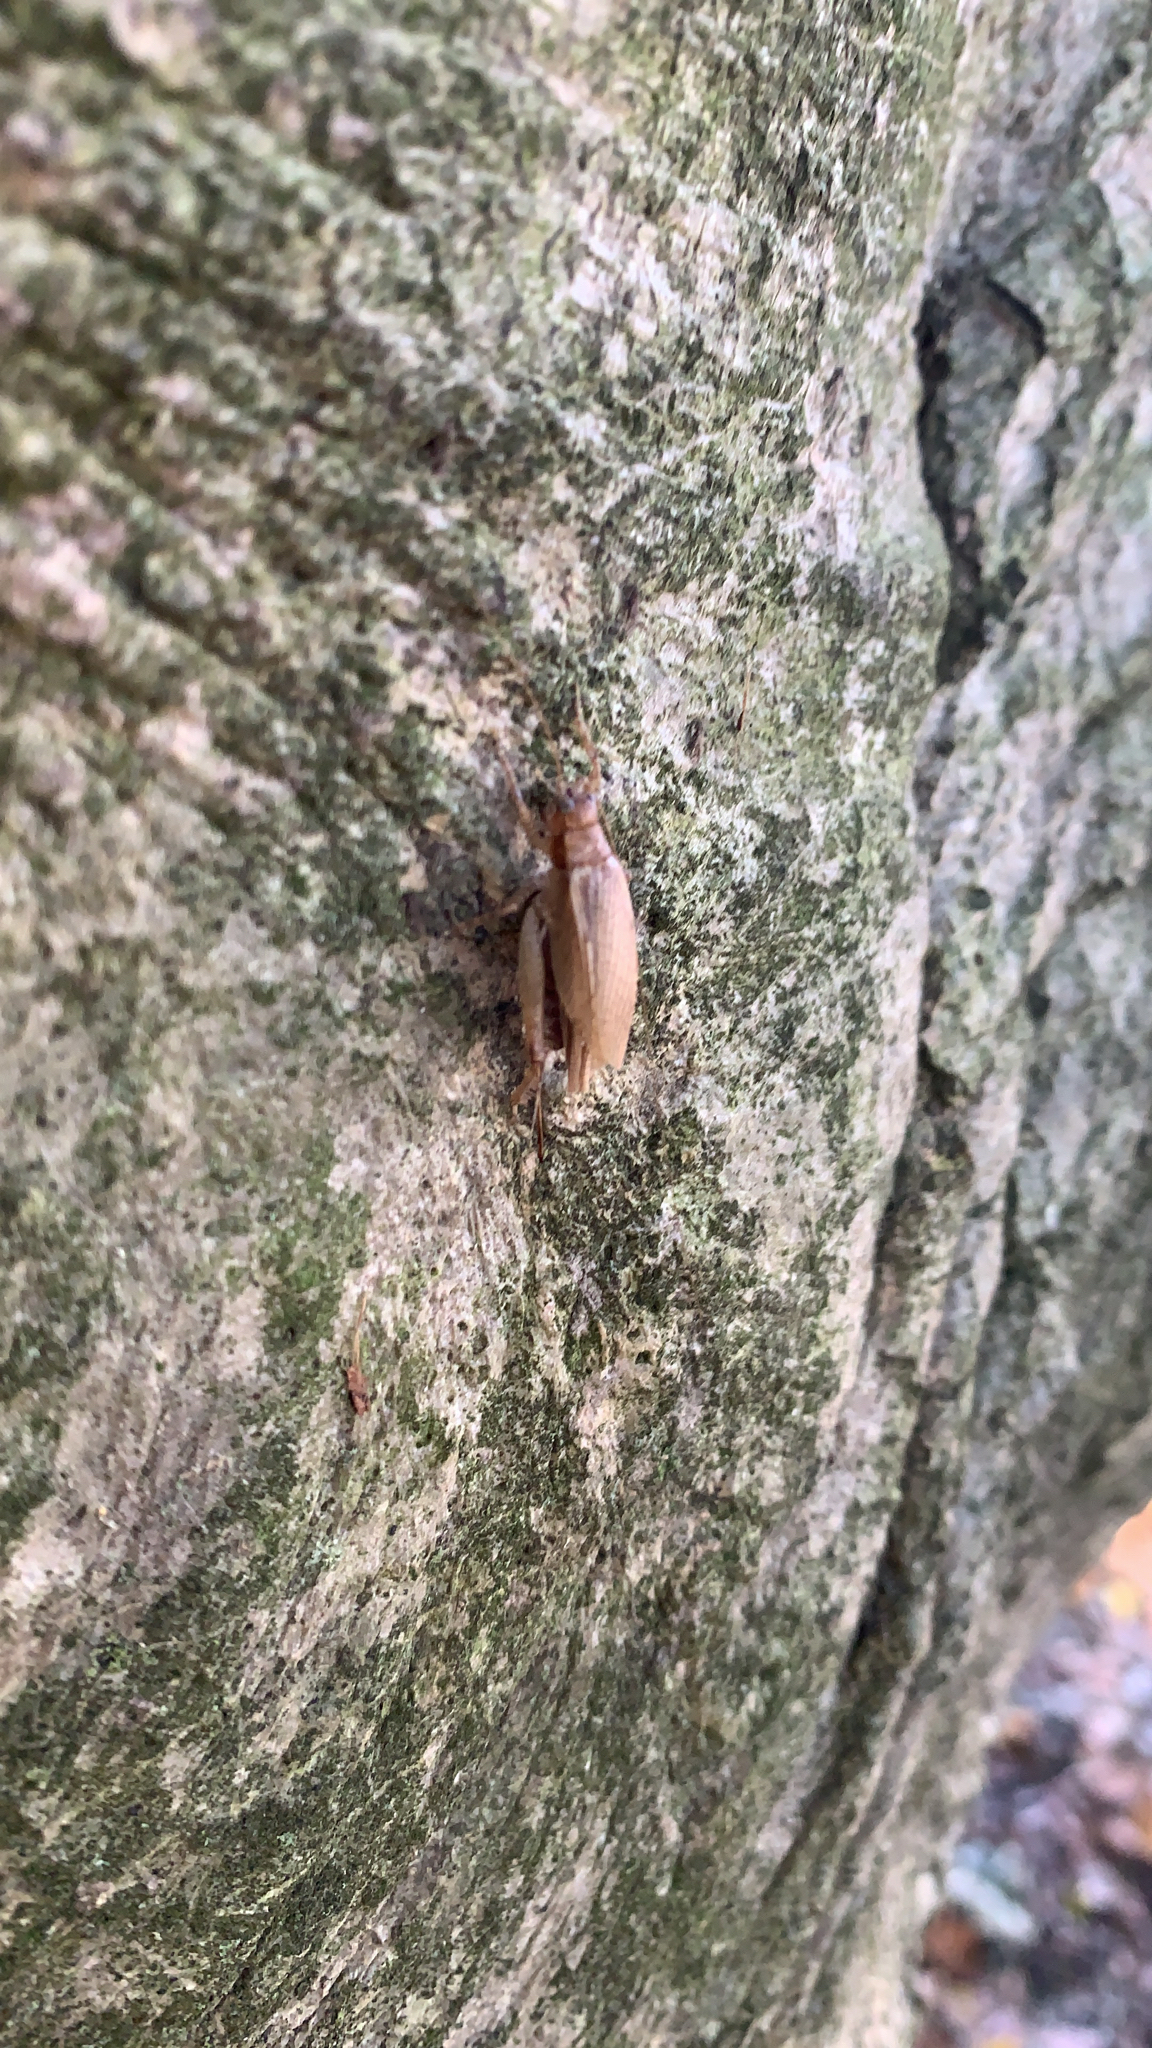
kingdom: Animalia
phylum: Arthropoda
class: Insecta
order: Orthoptera
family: Gryllidae
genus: Hapithus
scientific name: Hapithus saltator
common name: Jumping bush cricket
